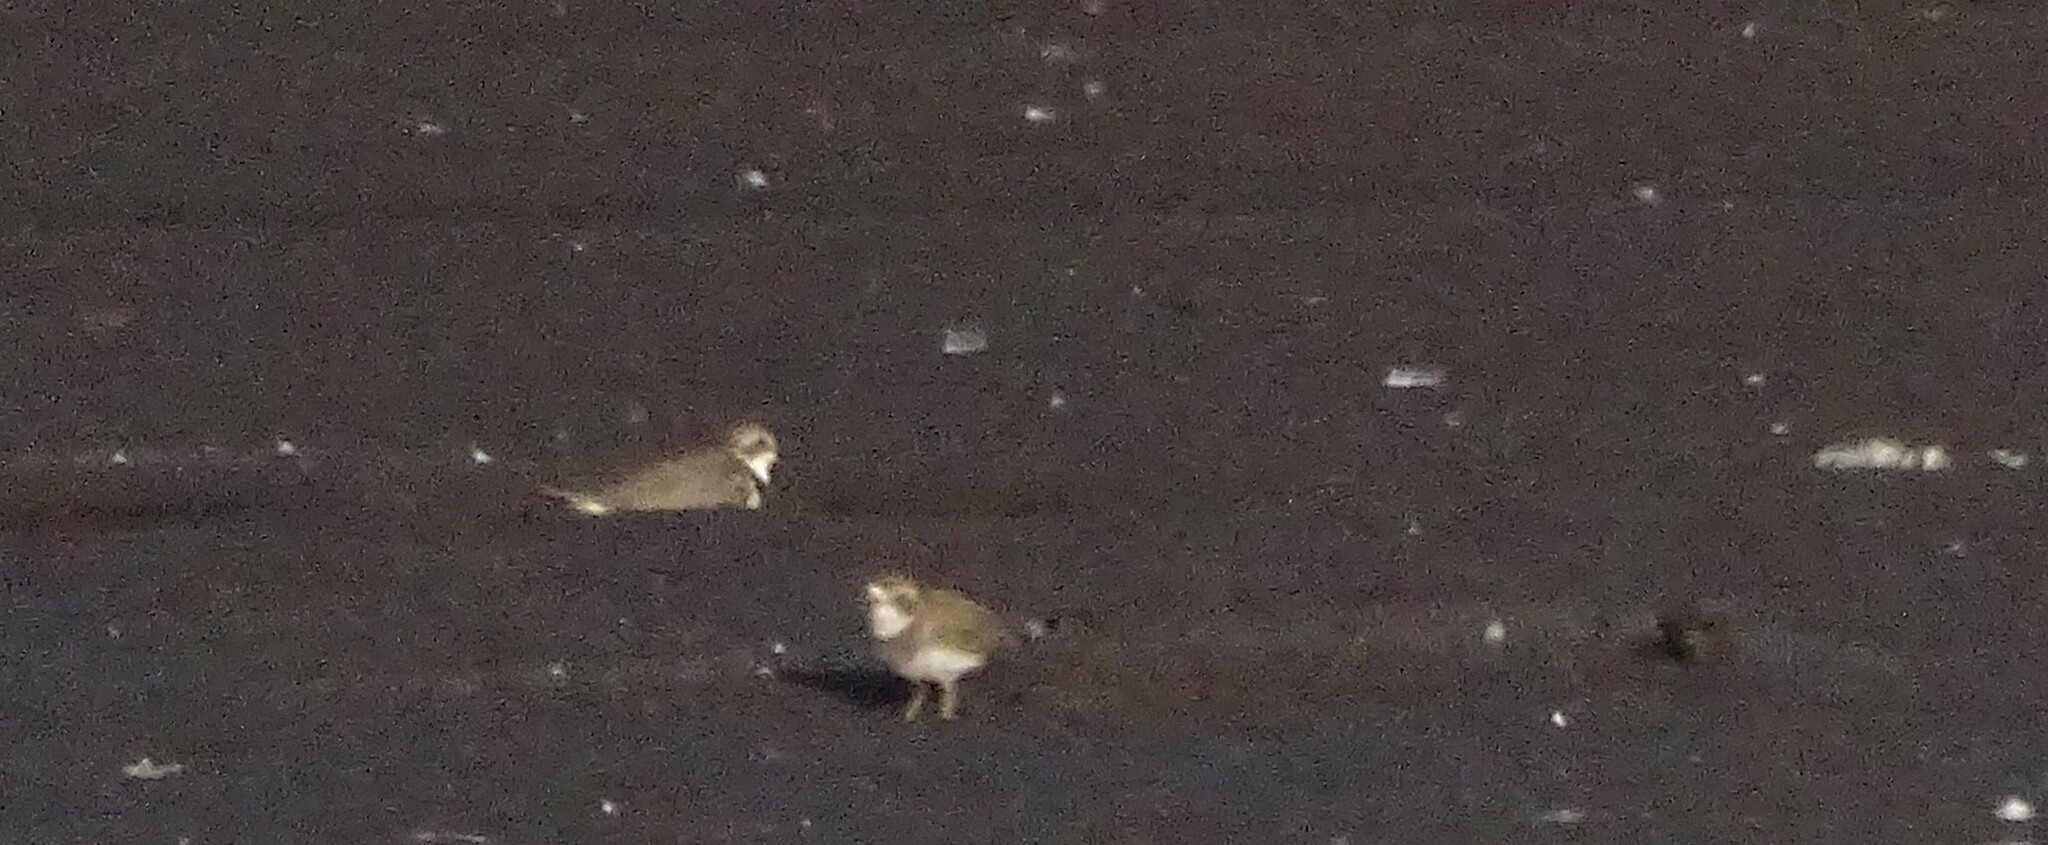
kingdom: Animalia
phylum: Chordata
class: Aves
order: Charadriiformes
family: Charadriidae
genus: Anarhynchus
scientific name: Anarhynchus
